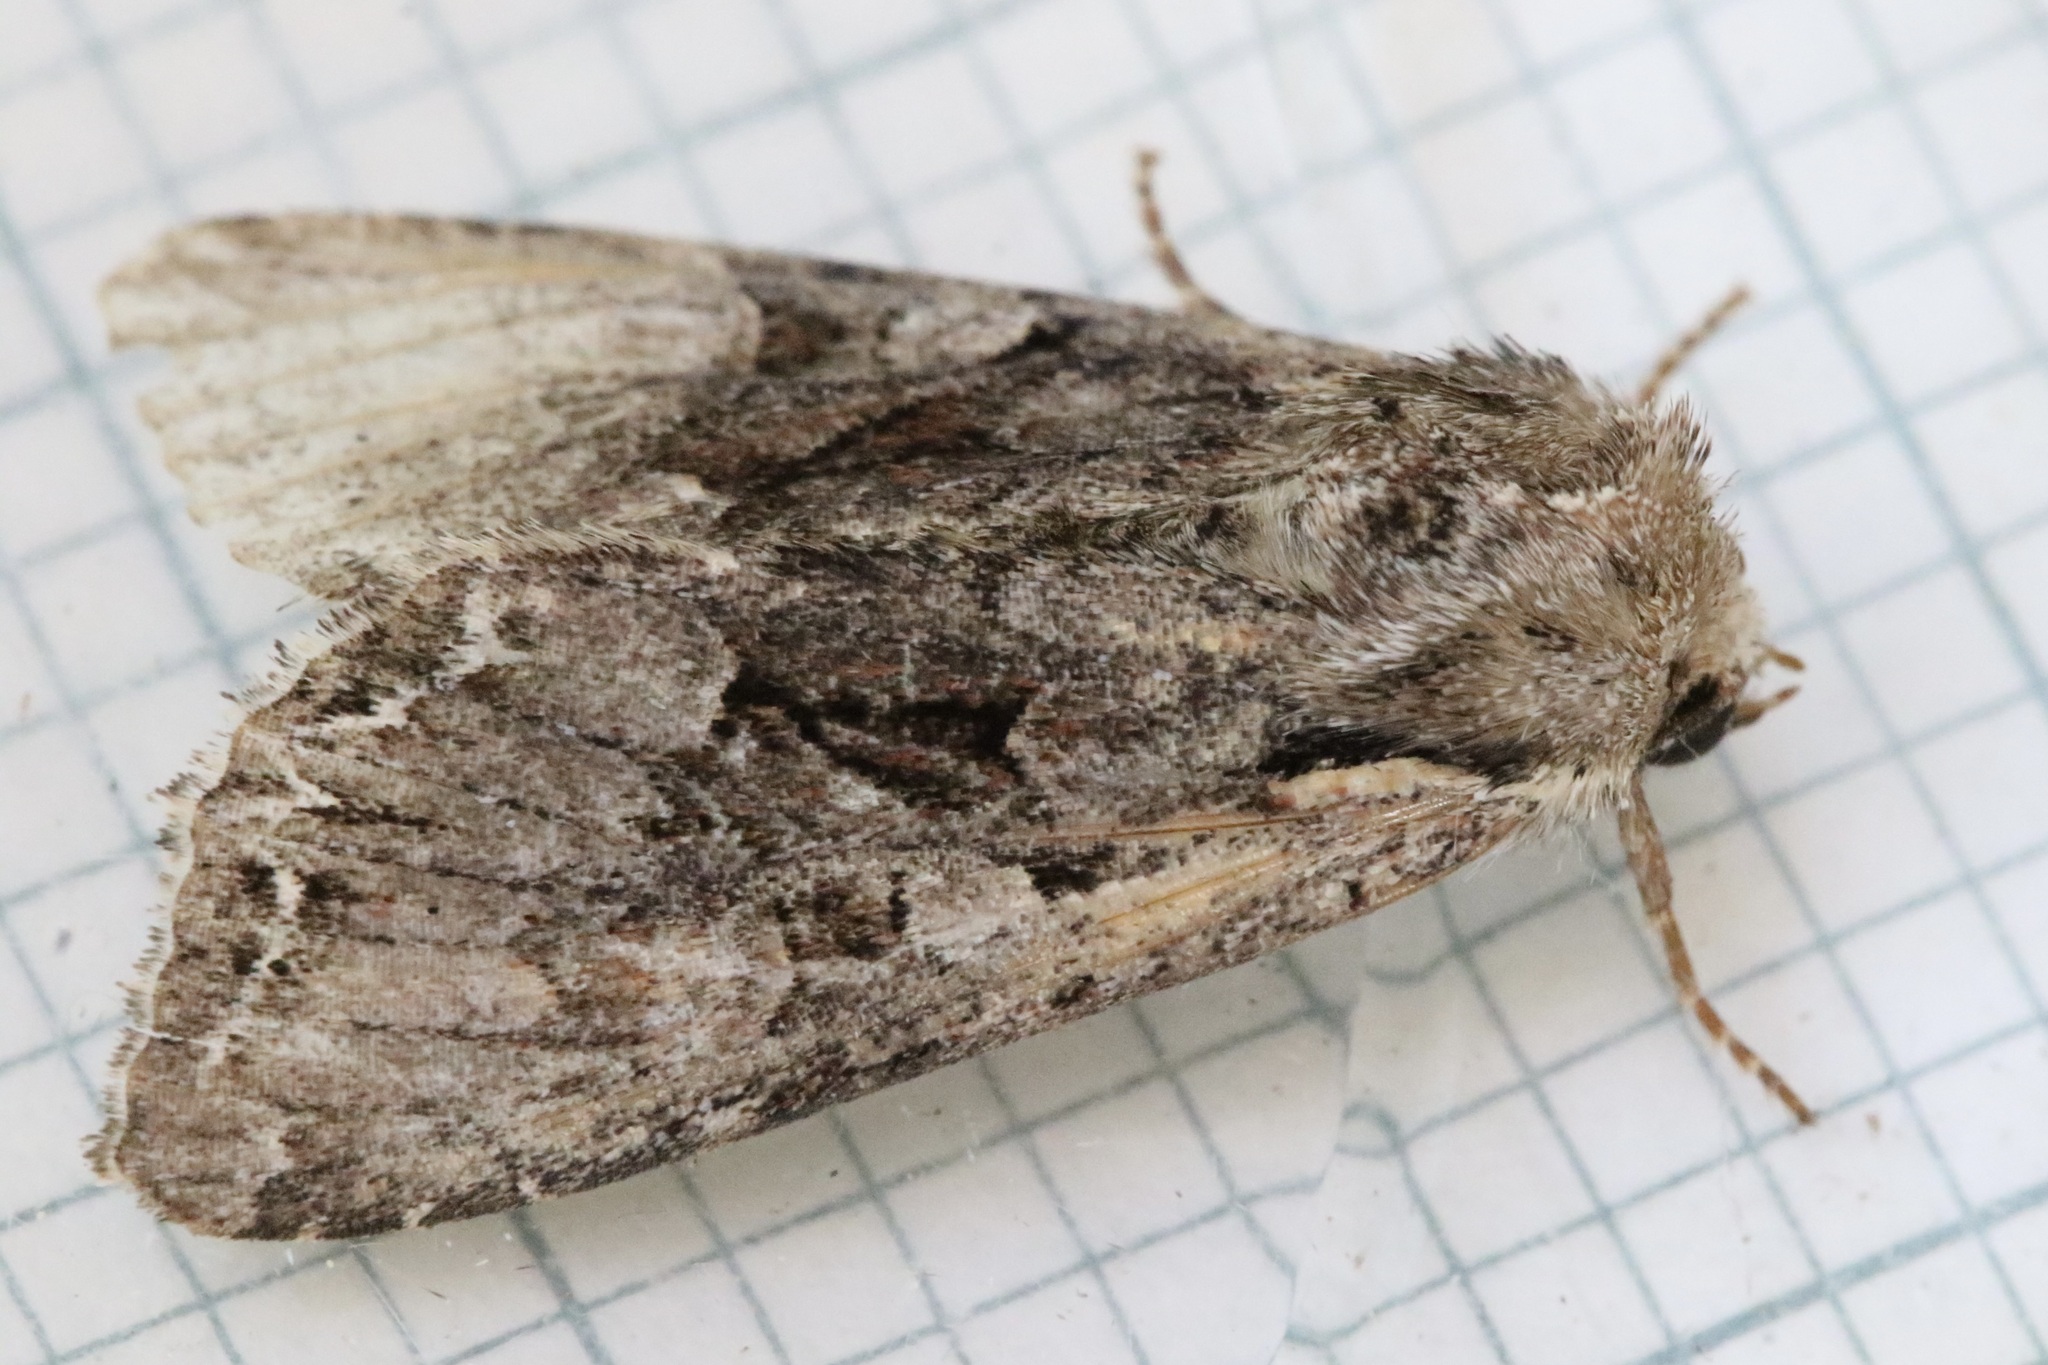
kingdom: Animalia
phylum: Arthropoda
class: Insecta
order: Lepidoptera
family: Noctuidae
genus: Lacanobia
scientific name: Lacanobia thalassina
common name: Pale-shouldered brocade
